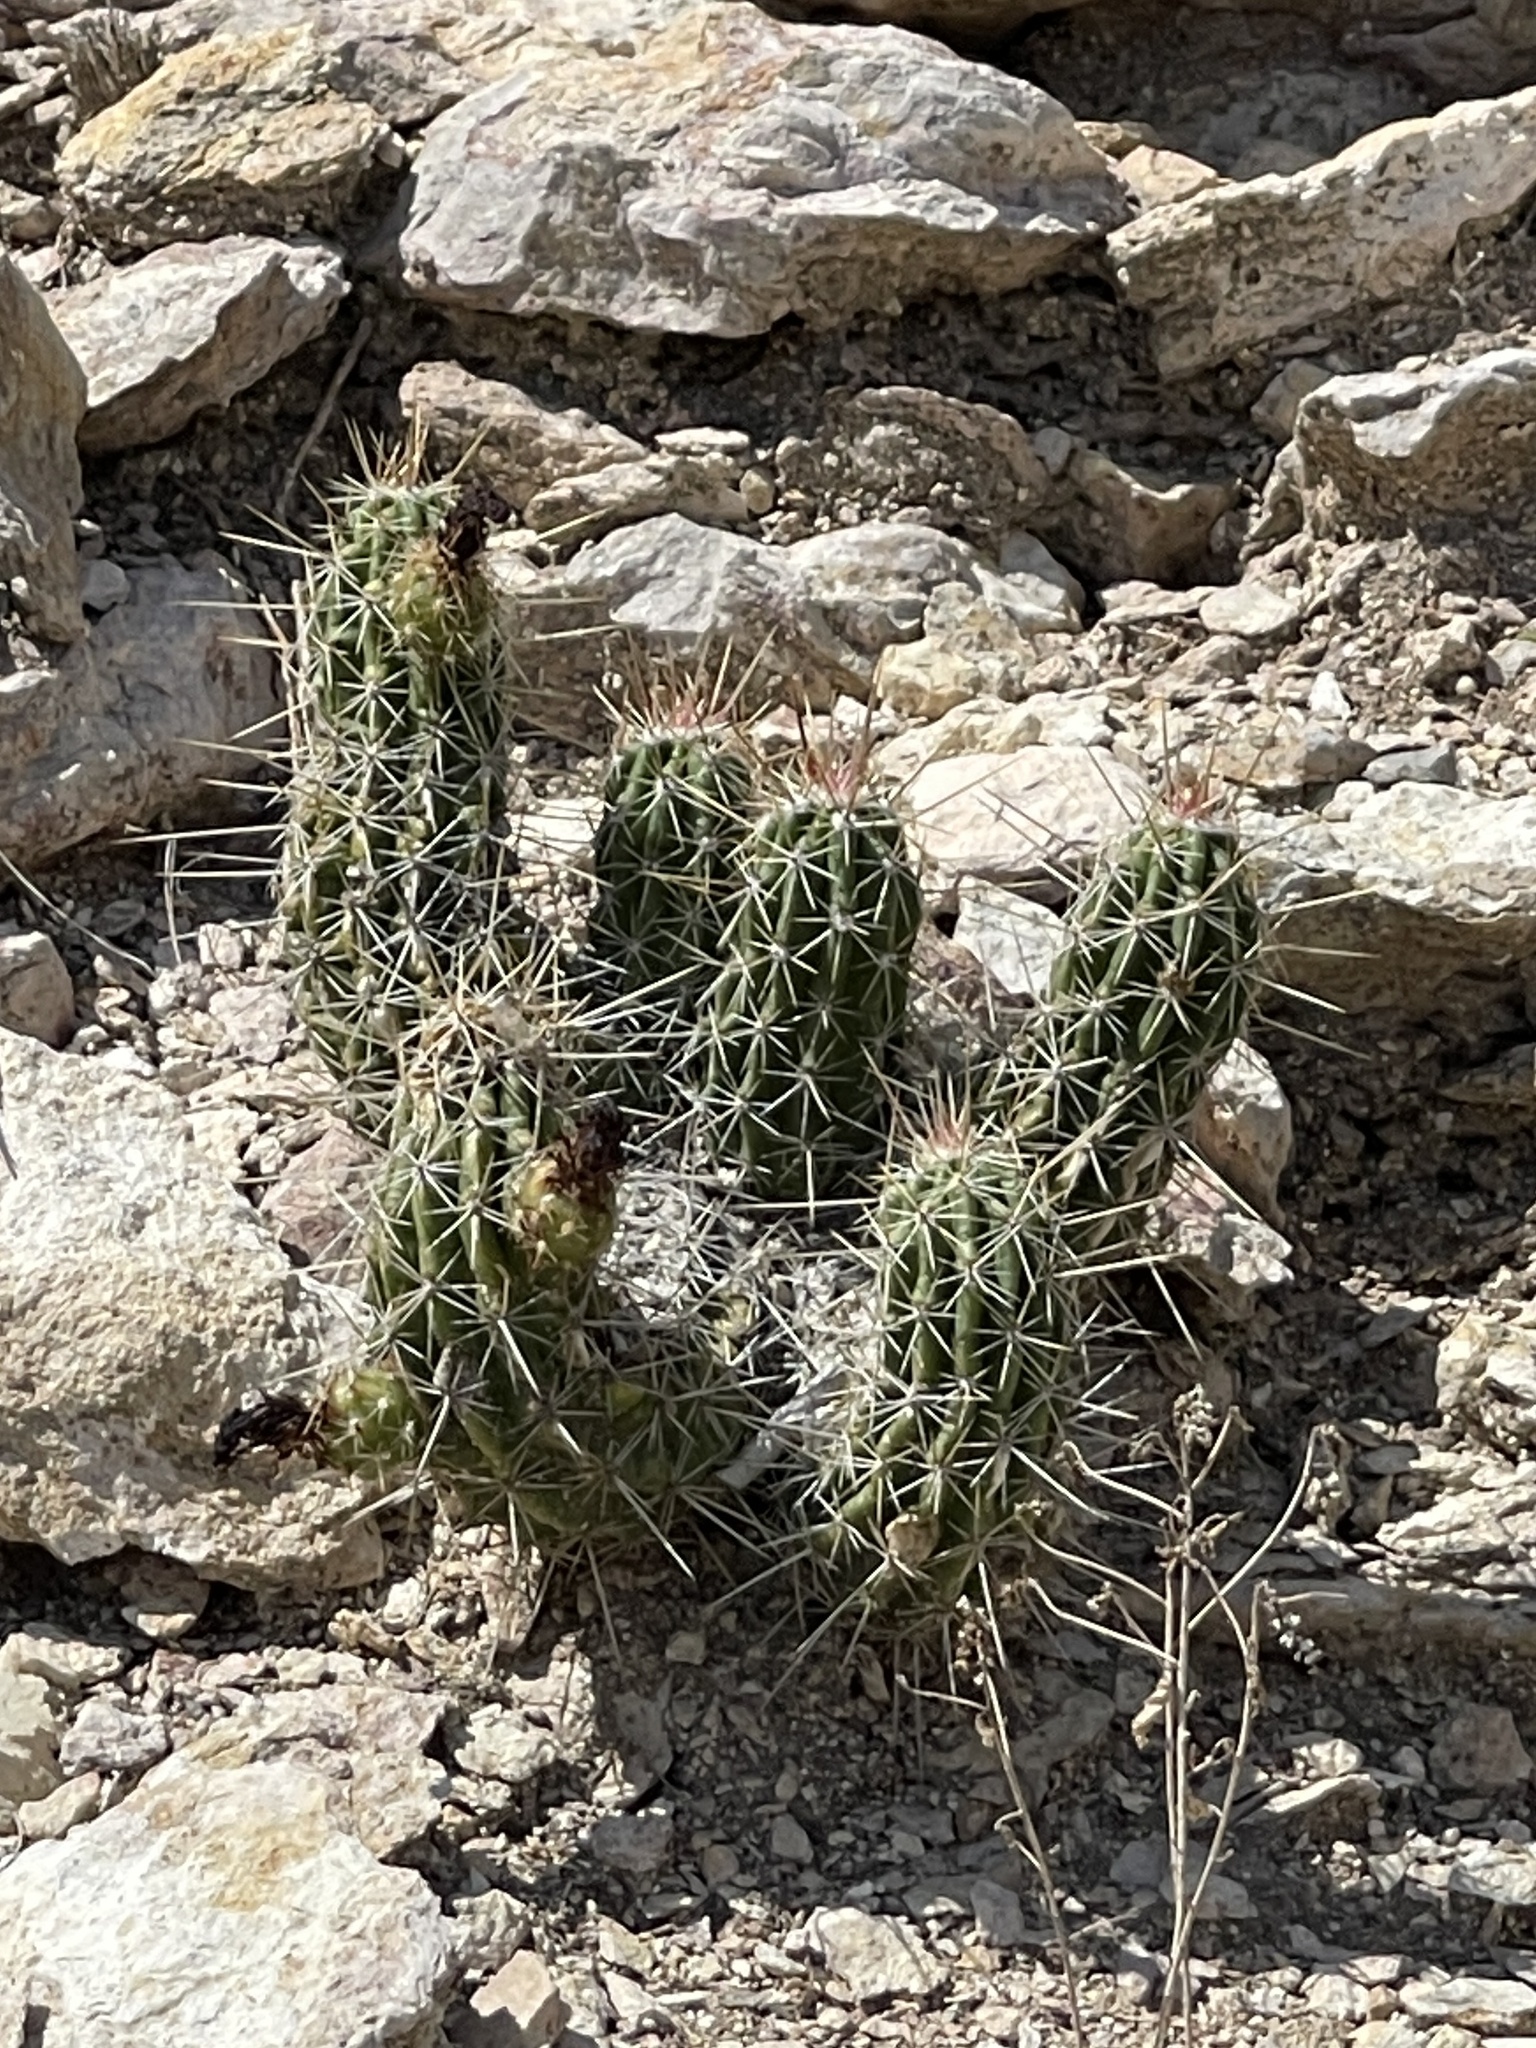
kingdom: Plantae
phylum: Tracheophyta
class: Magnoliopsida
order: Caryophyllales
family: Cactaceae
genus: Echinocereus
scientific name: Echinocereus enneacanthus
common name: Pitaya
